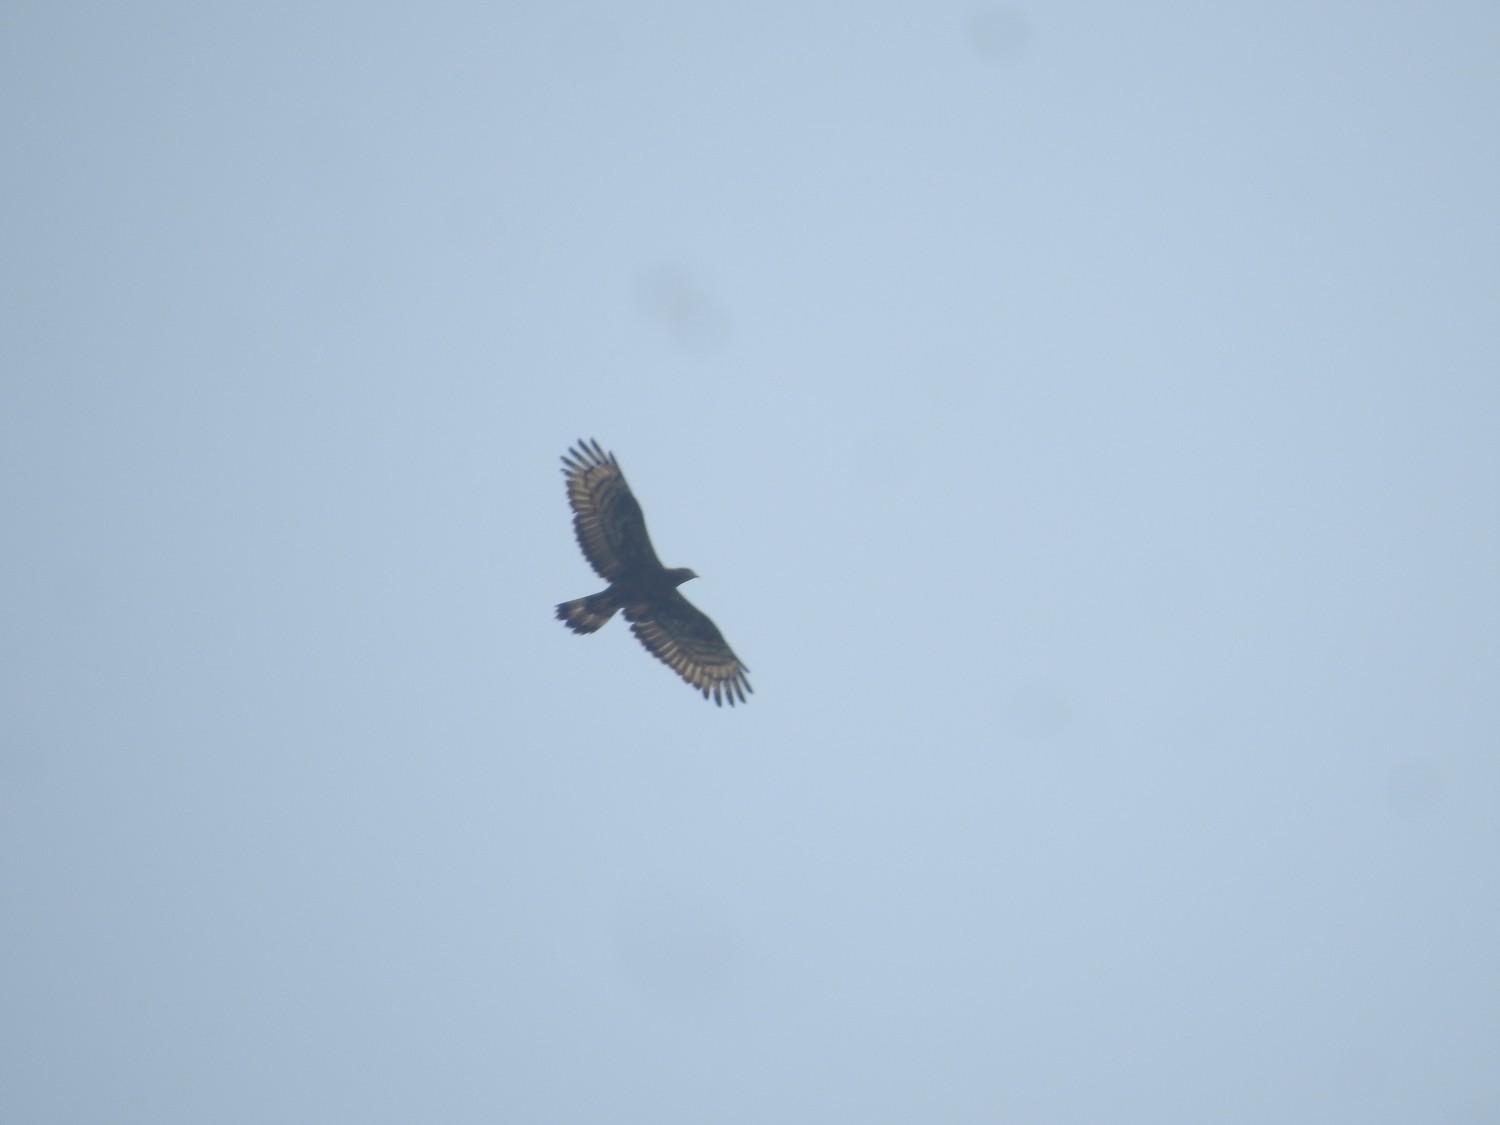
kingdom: Animalia
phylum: Chordata
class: Aves
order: Accipitriformes
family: Accipitridae
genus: Pernis
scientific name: Pernis ptilorhynchus
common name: Crested honey buzzard
